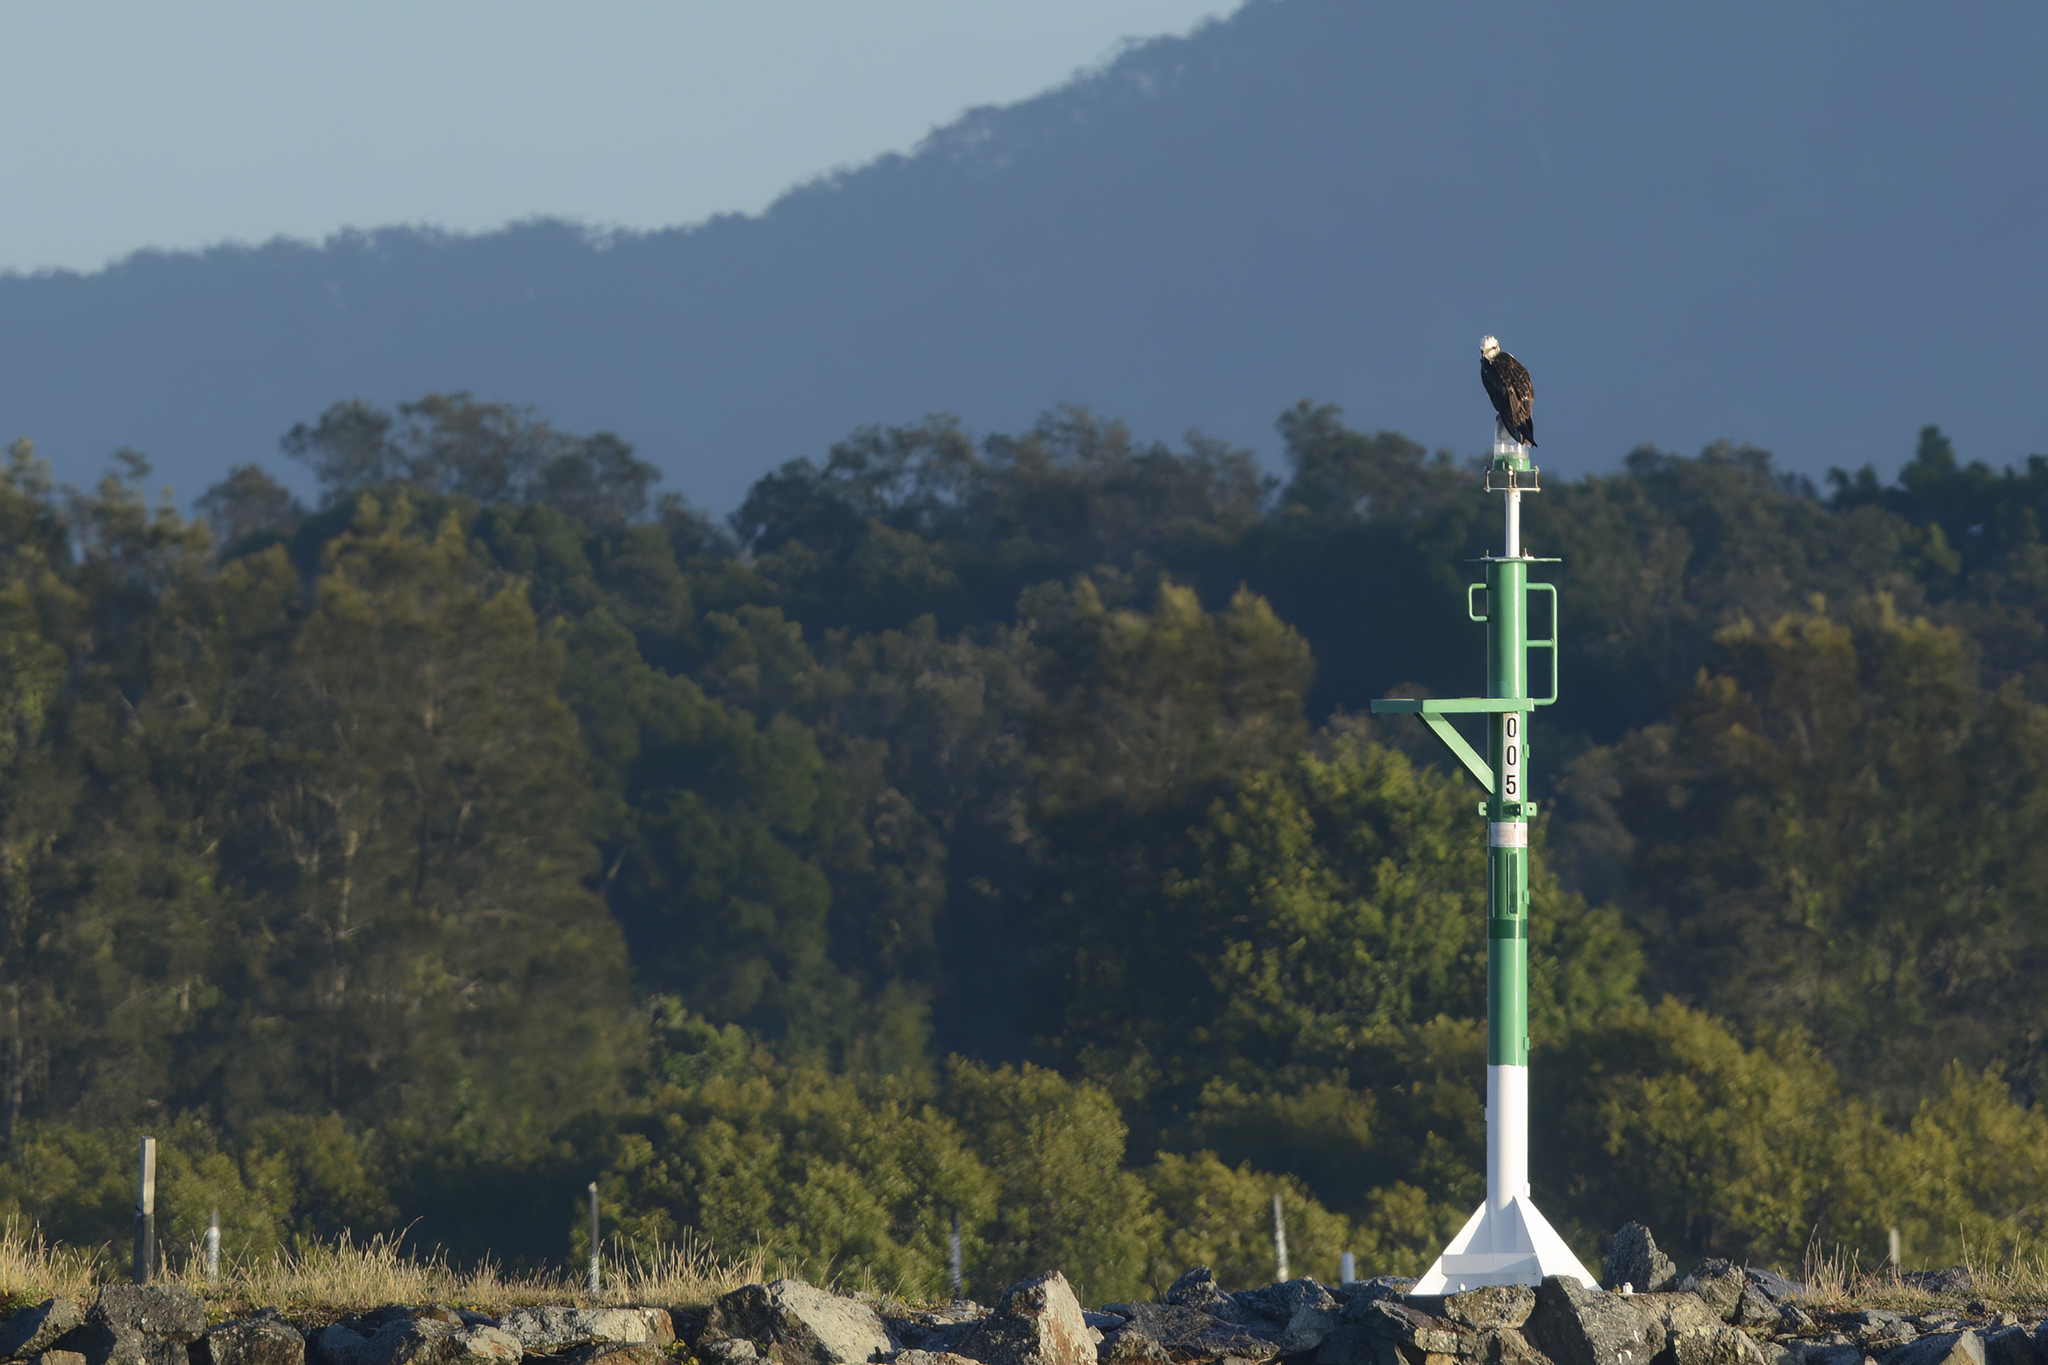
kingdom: Animalia
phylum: Chordata
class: Aves
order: Accipitriformes
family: Pandionidae
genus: Pandion
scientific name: Pandion cristatus
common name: Eastern osprey
